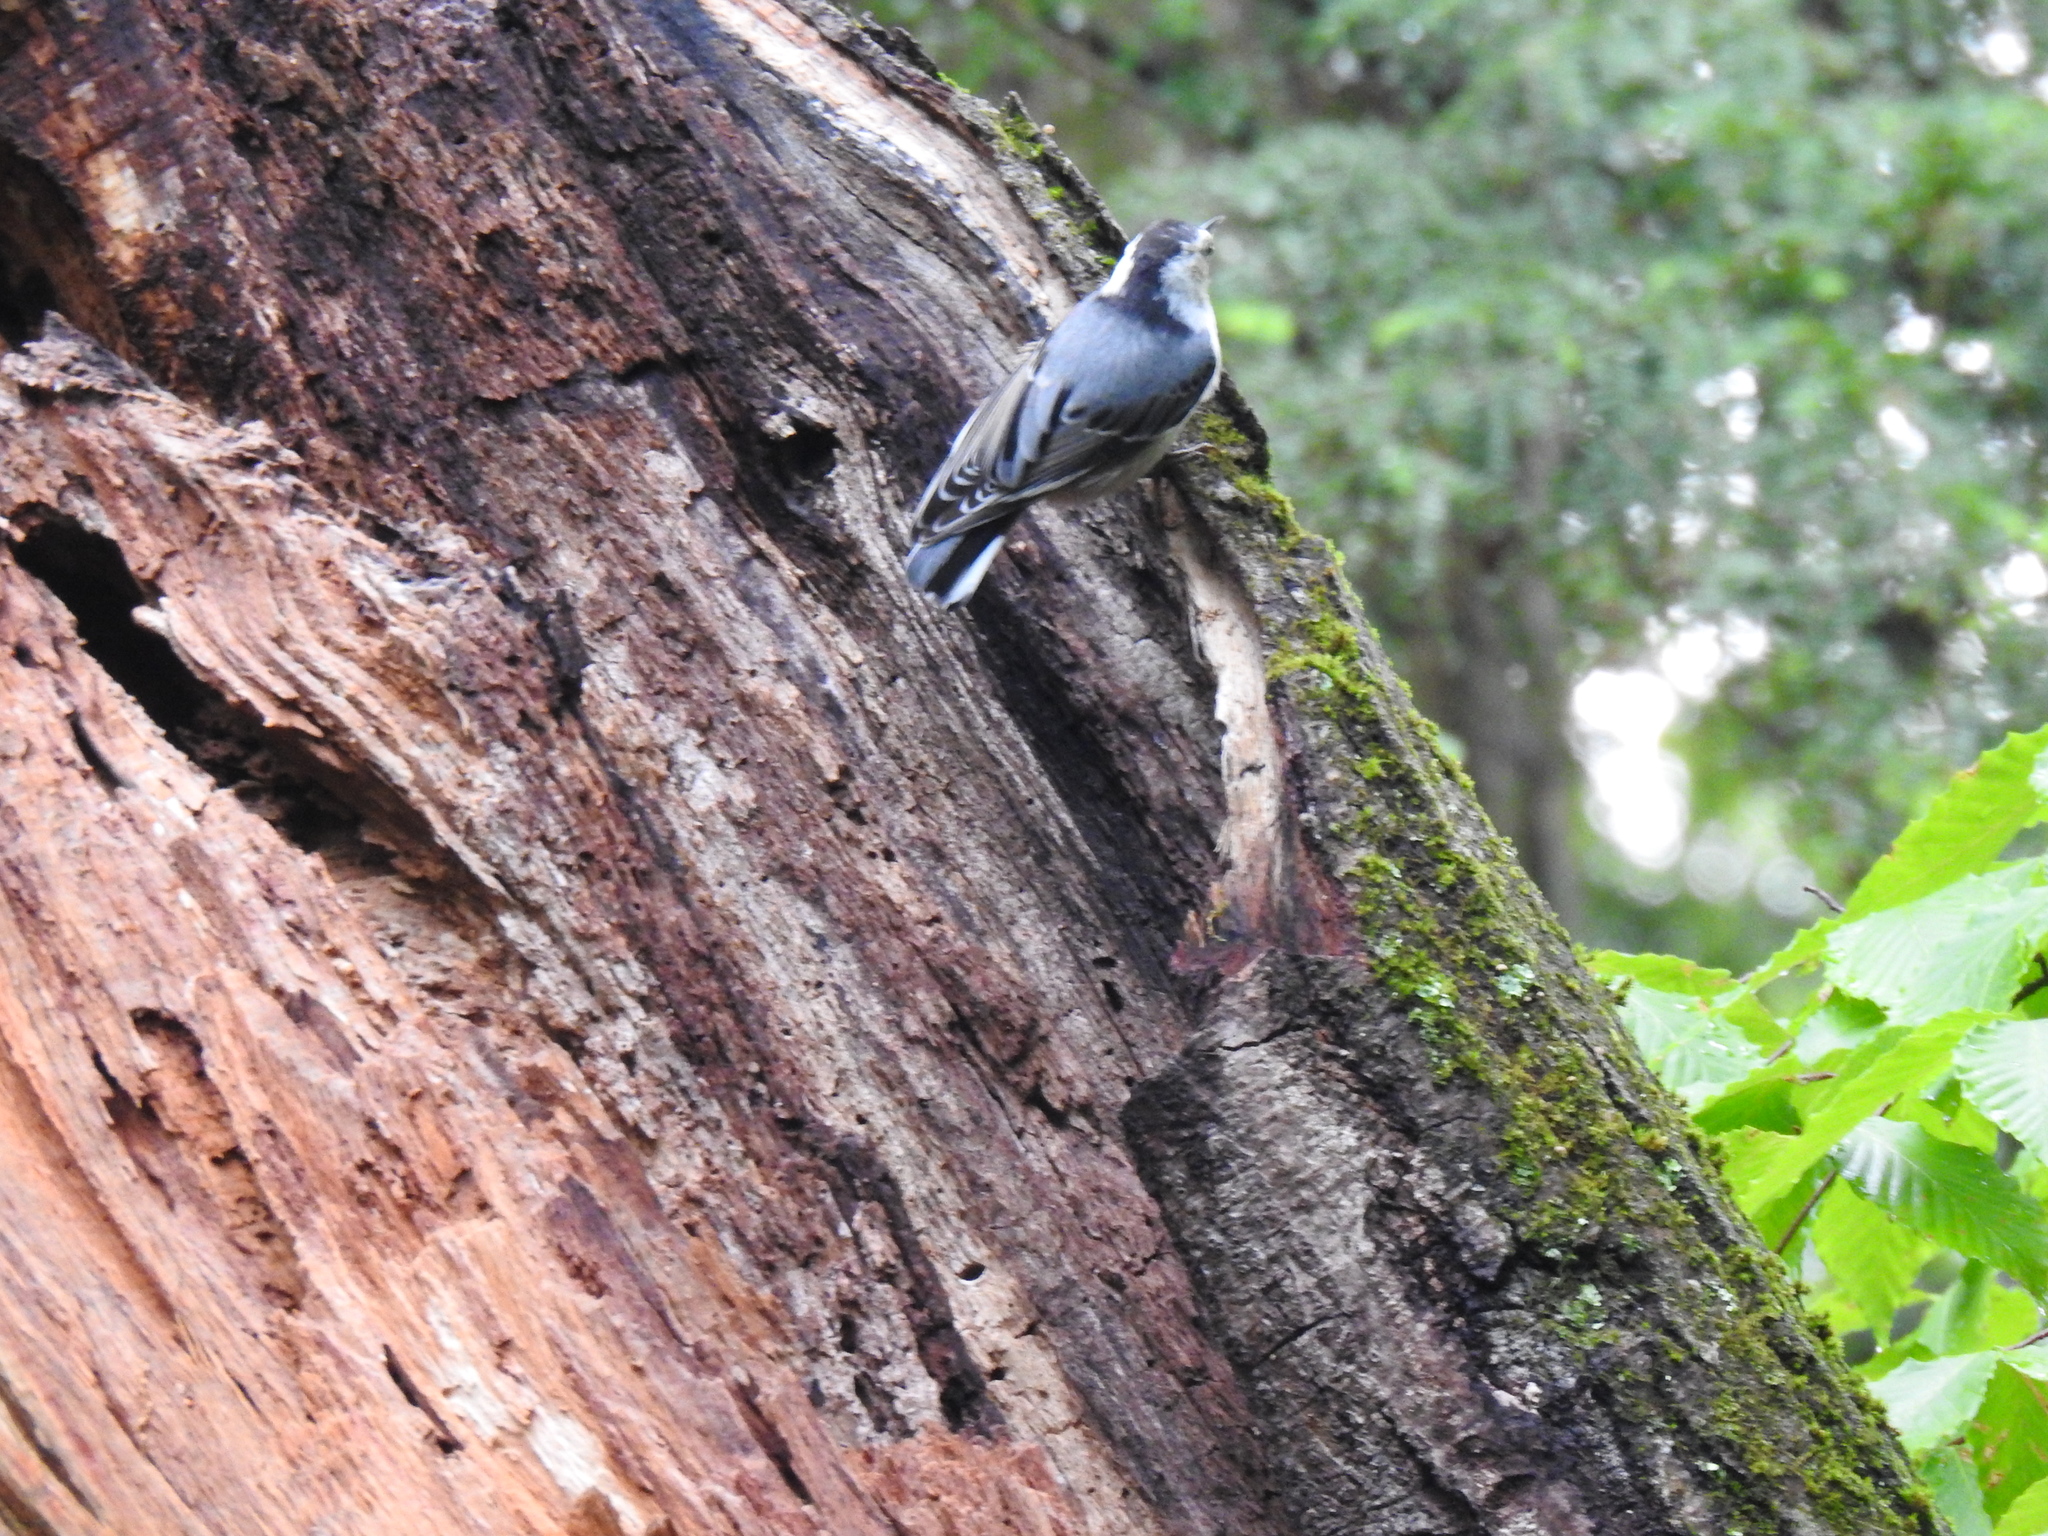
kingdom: Animalia
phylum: Chordata
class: Aves
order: Passeriformes
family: Sittidae
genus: Sitta
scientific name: Sitta carolinensis
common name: White-breasted nuthatch
